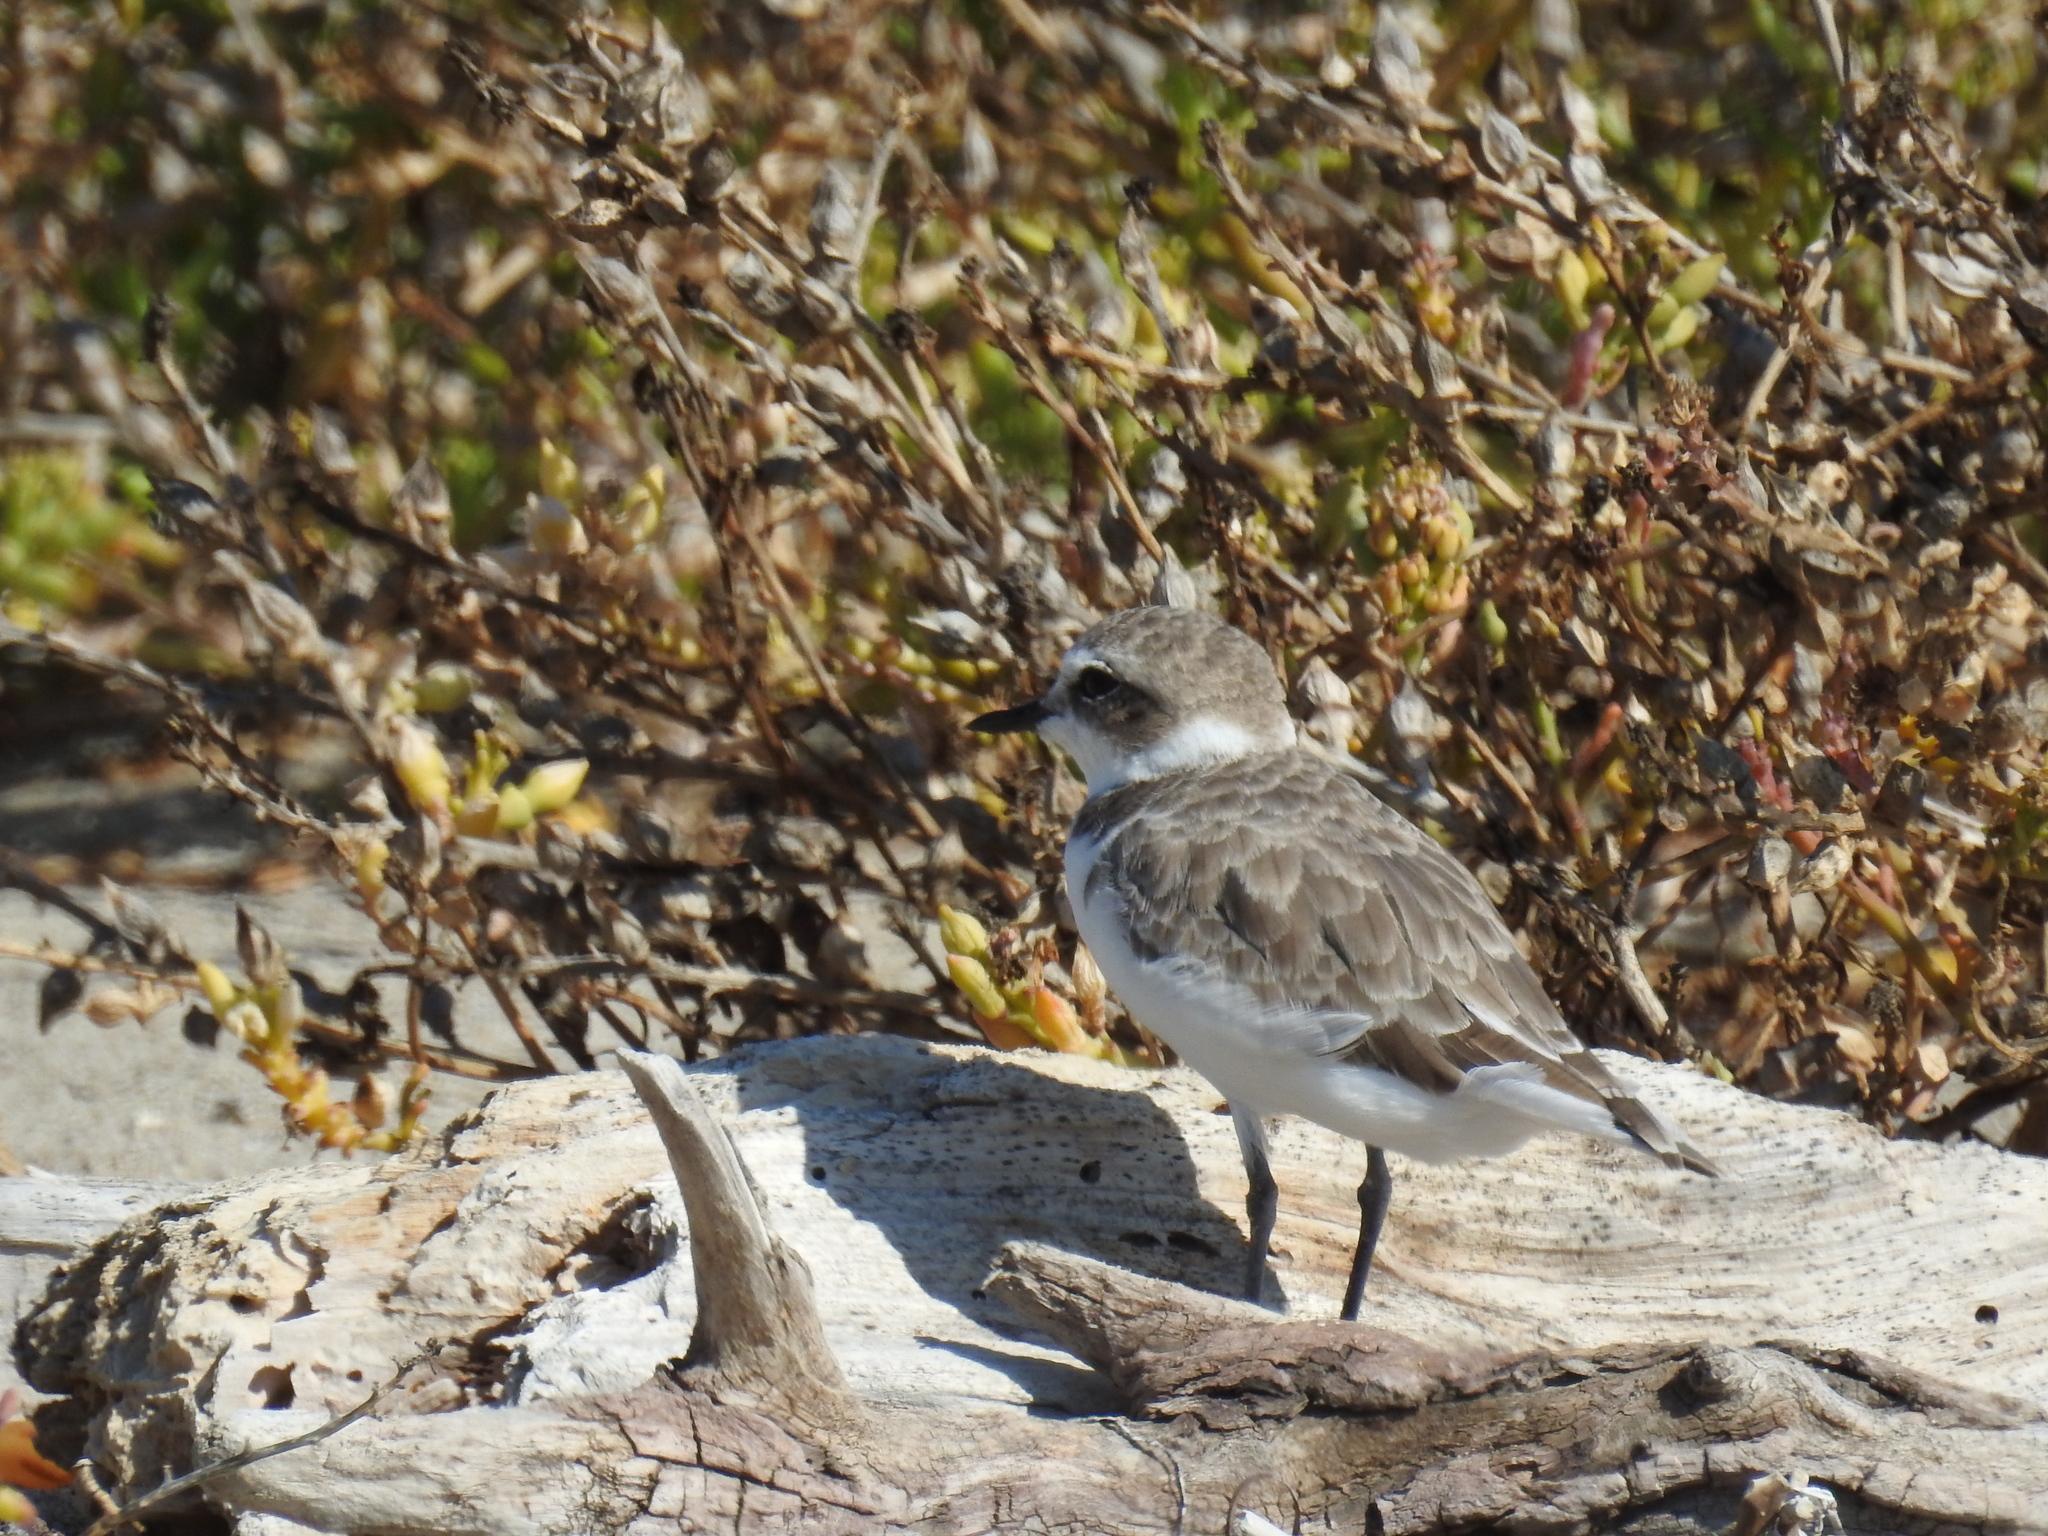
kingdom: Animalia
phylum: Chordata
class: Aves
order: Charadriiformes
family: Charadriidae
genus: Anarhynchus
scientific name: Anarhynchus
